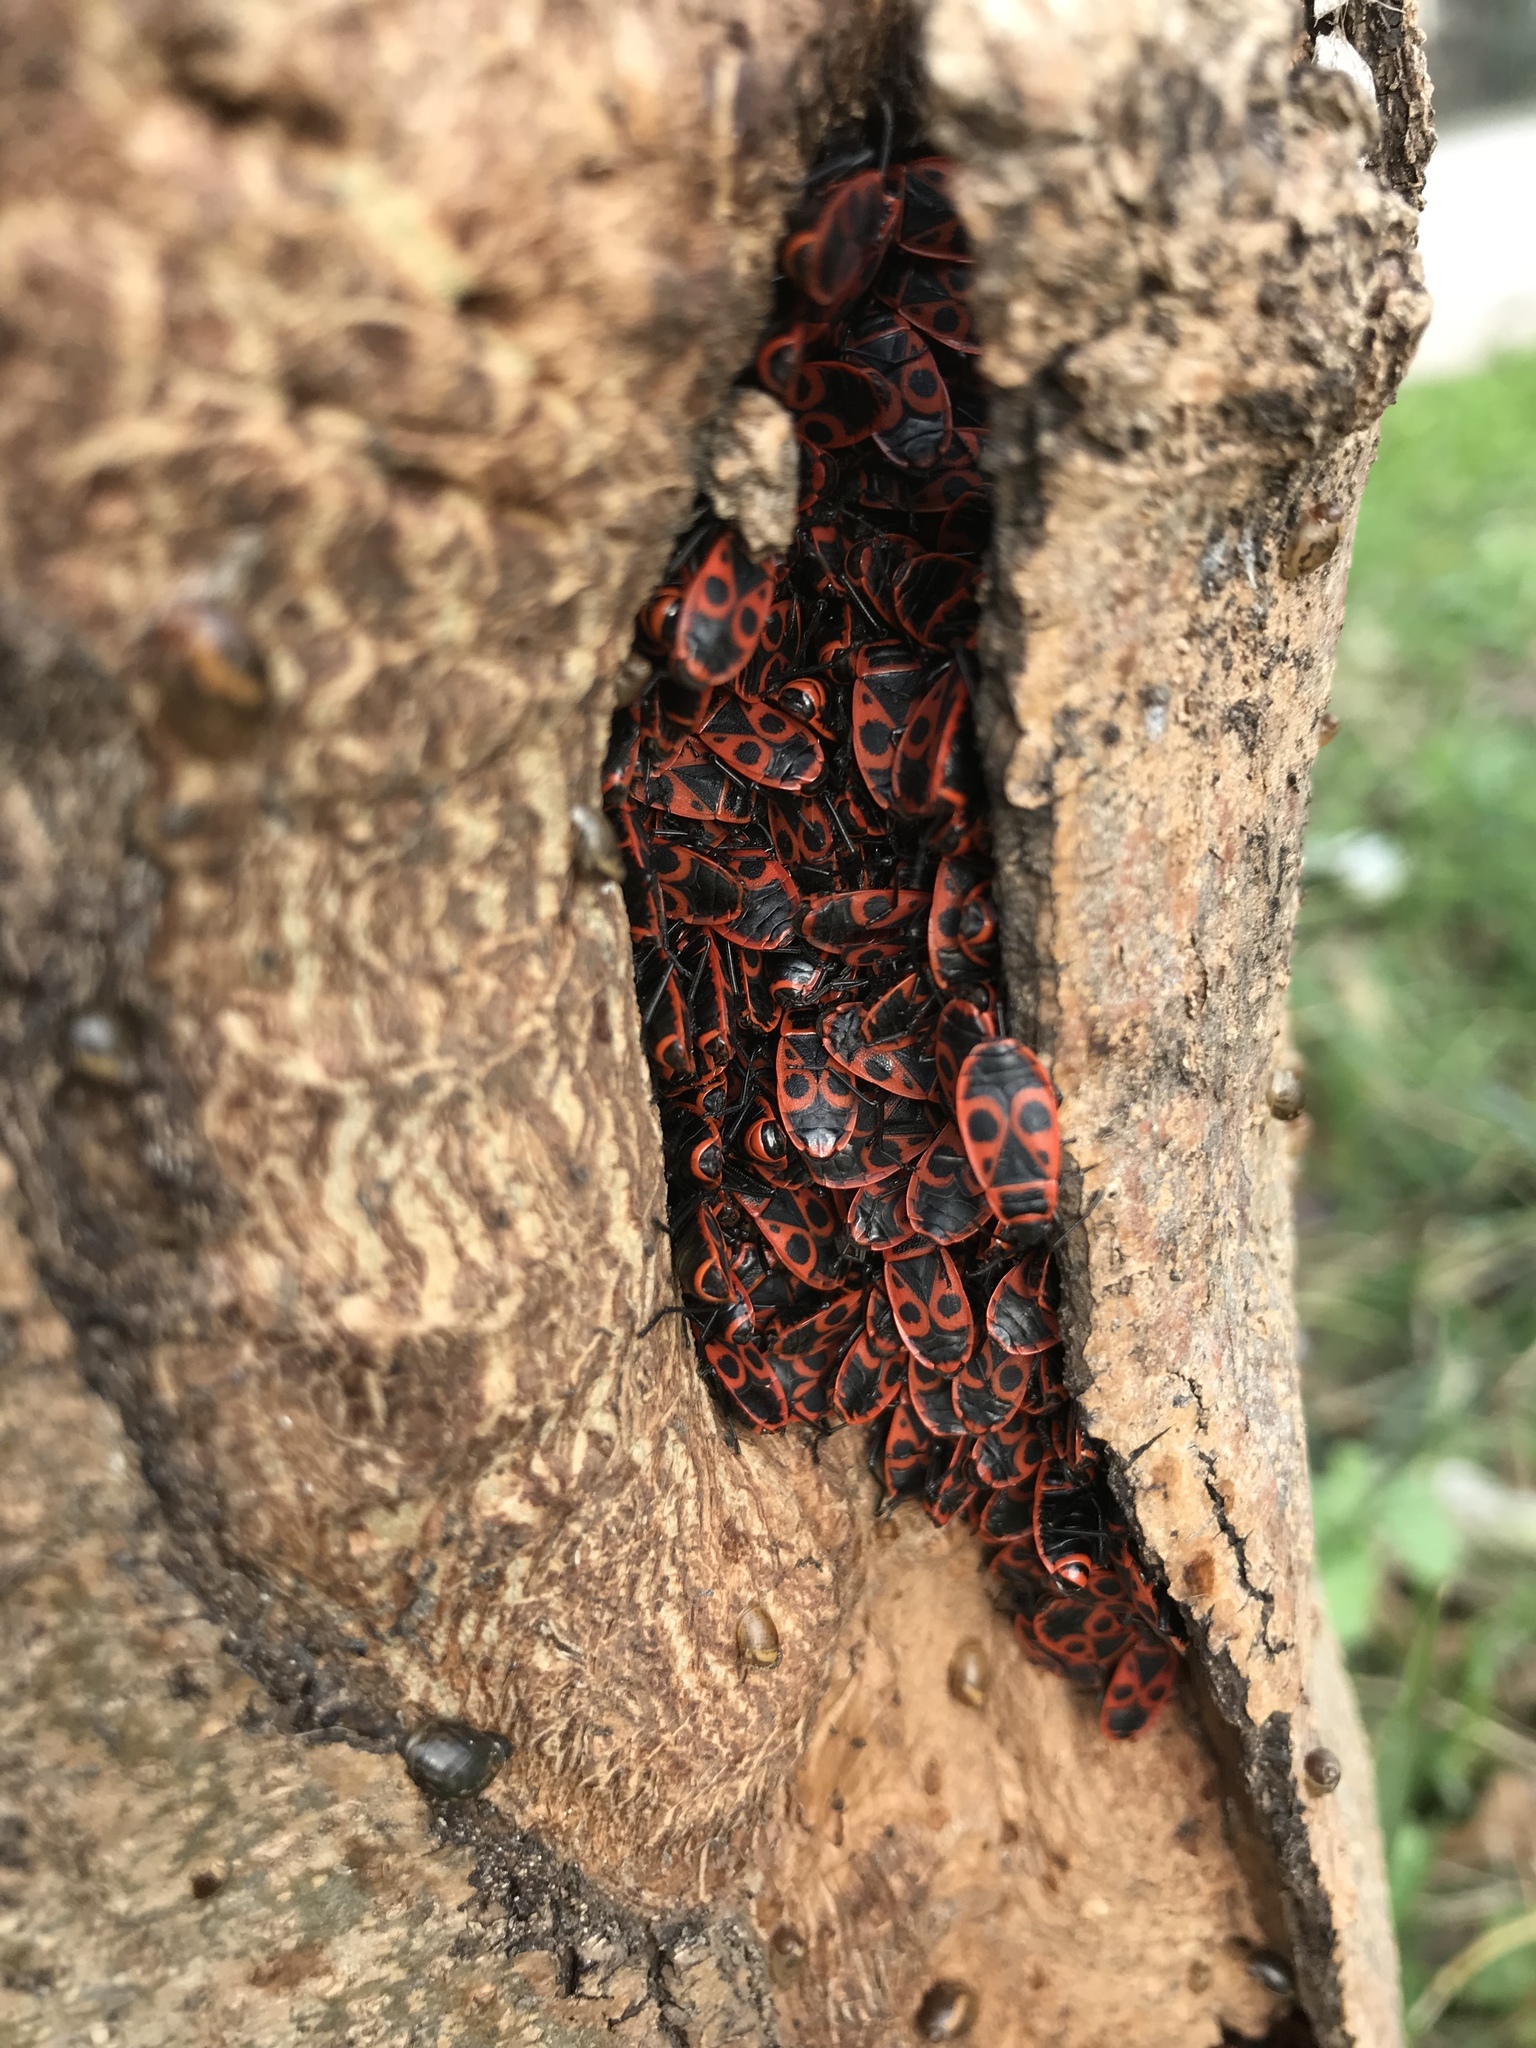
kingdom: Animalia
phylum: Arthropoda
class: Insecta
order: Hemiptera
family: Pyrrhocoridae
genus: Pyrrhocoris
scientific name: Pyrrhocoris apterus
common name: Firebug
